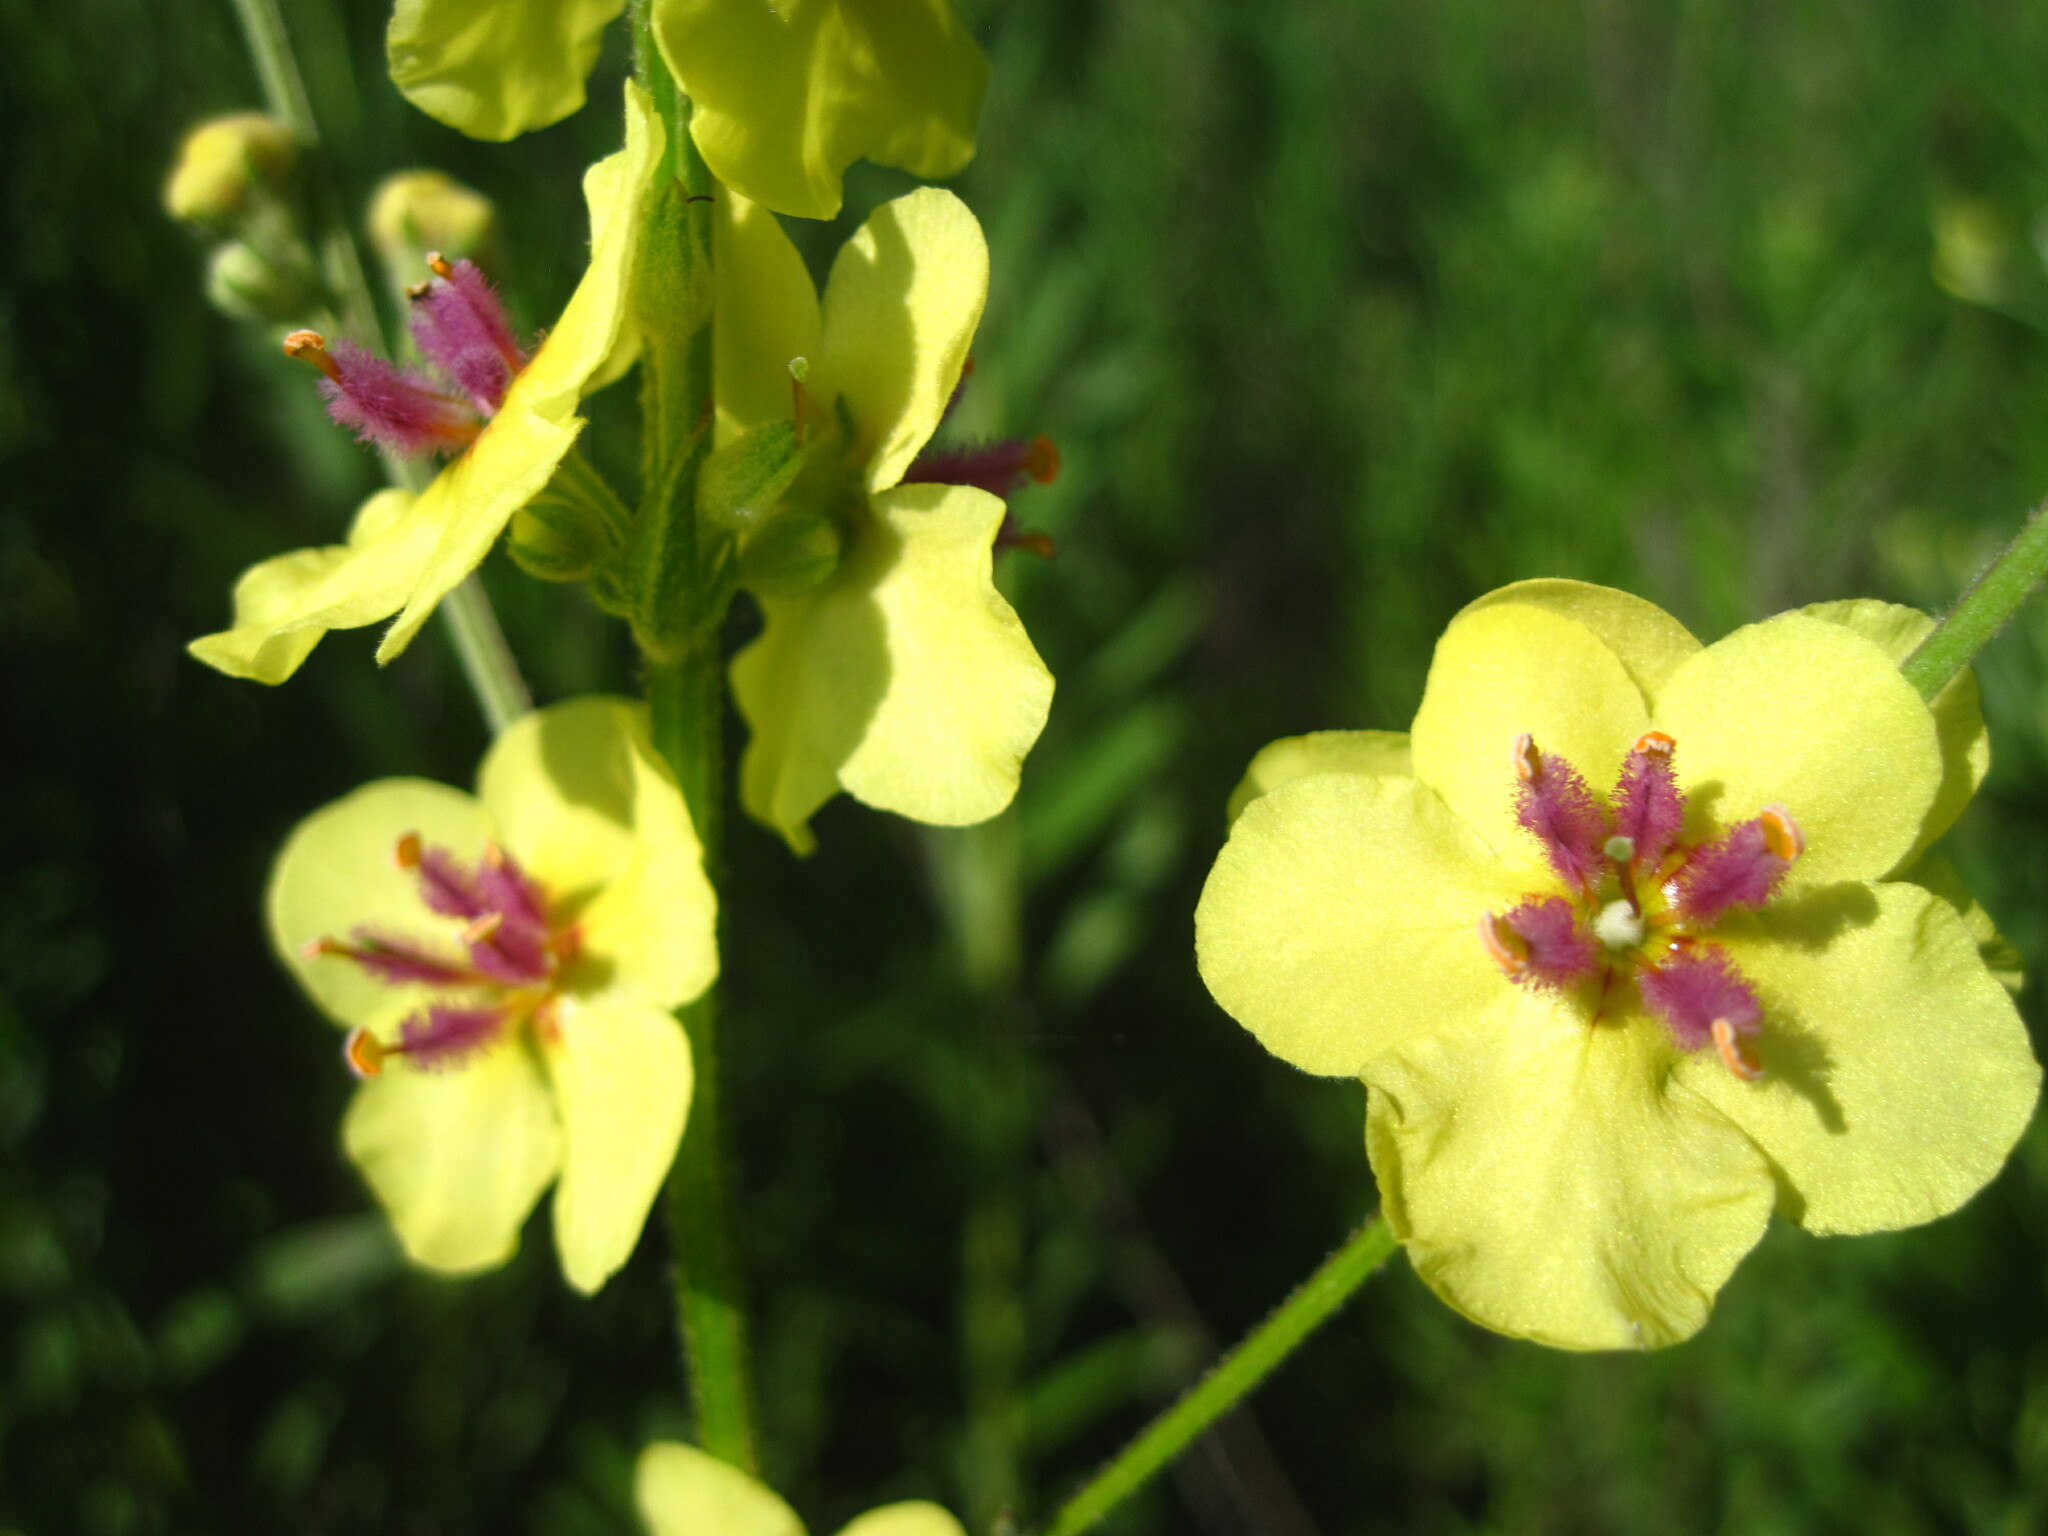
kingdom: Plantae
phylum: Tracheophyta
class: Magnoliopsida
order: Lamiales
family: Scrophulariaceae
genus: Verbascum
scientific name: Verbascum chaixii
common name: Nettle-leaved mullein
